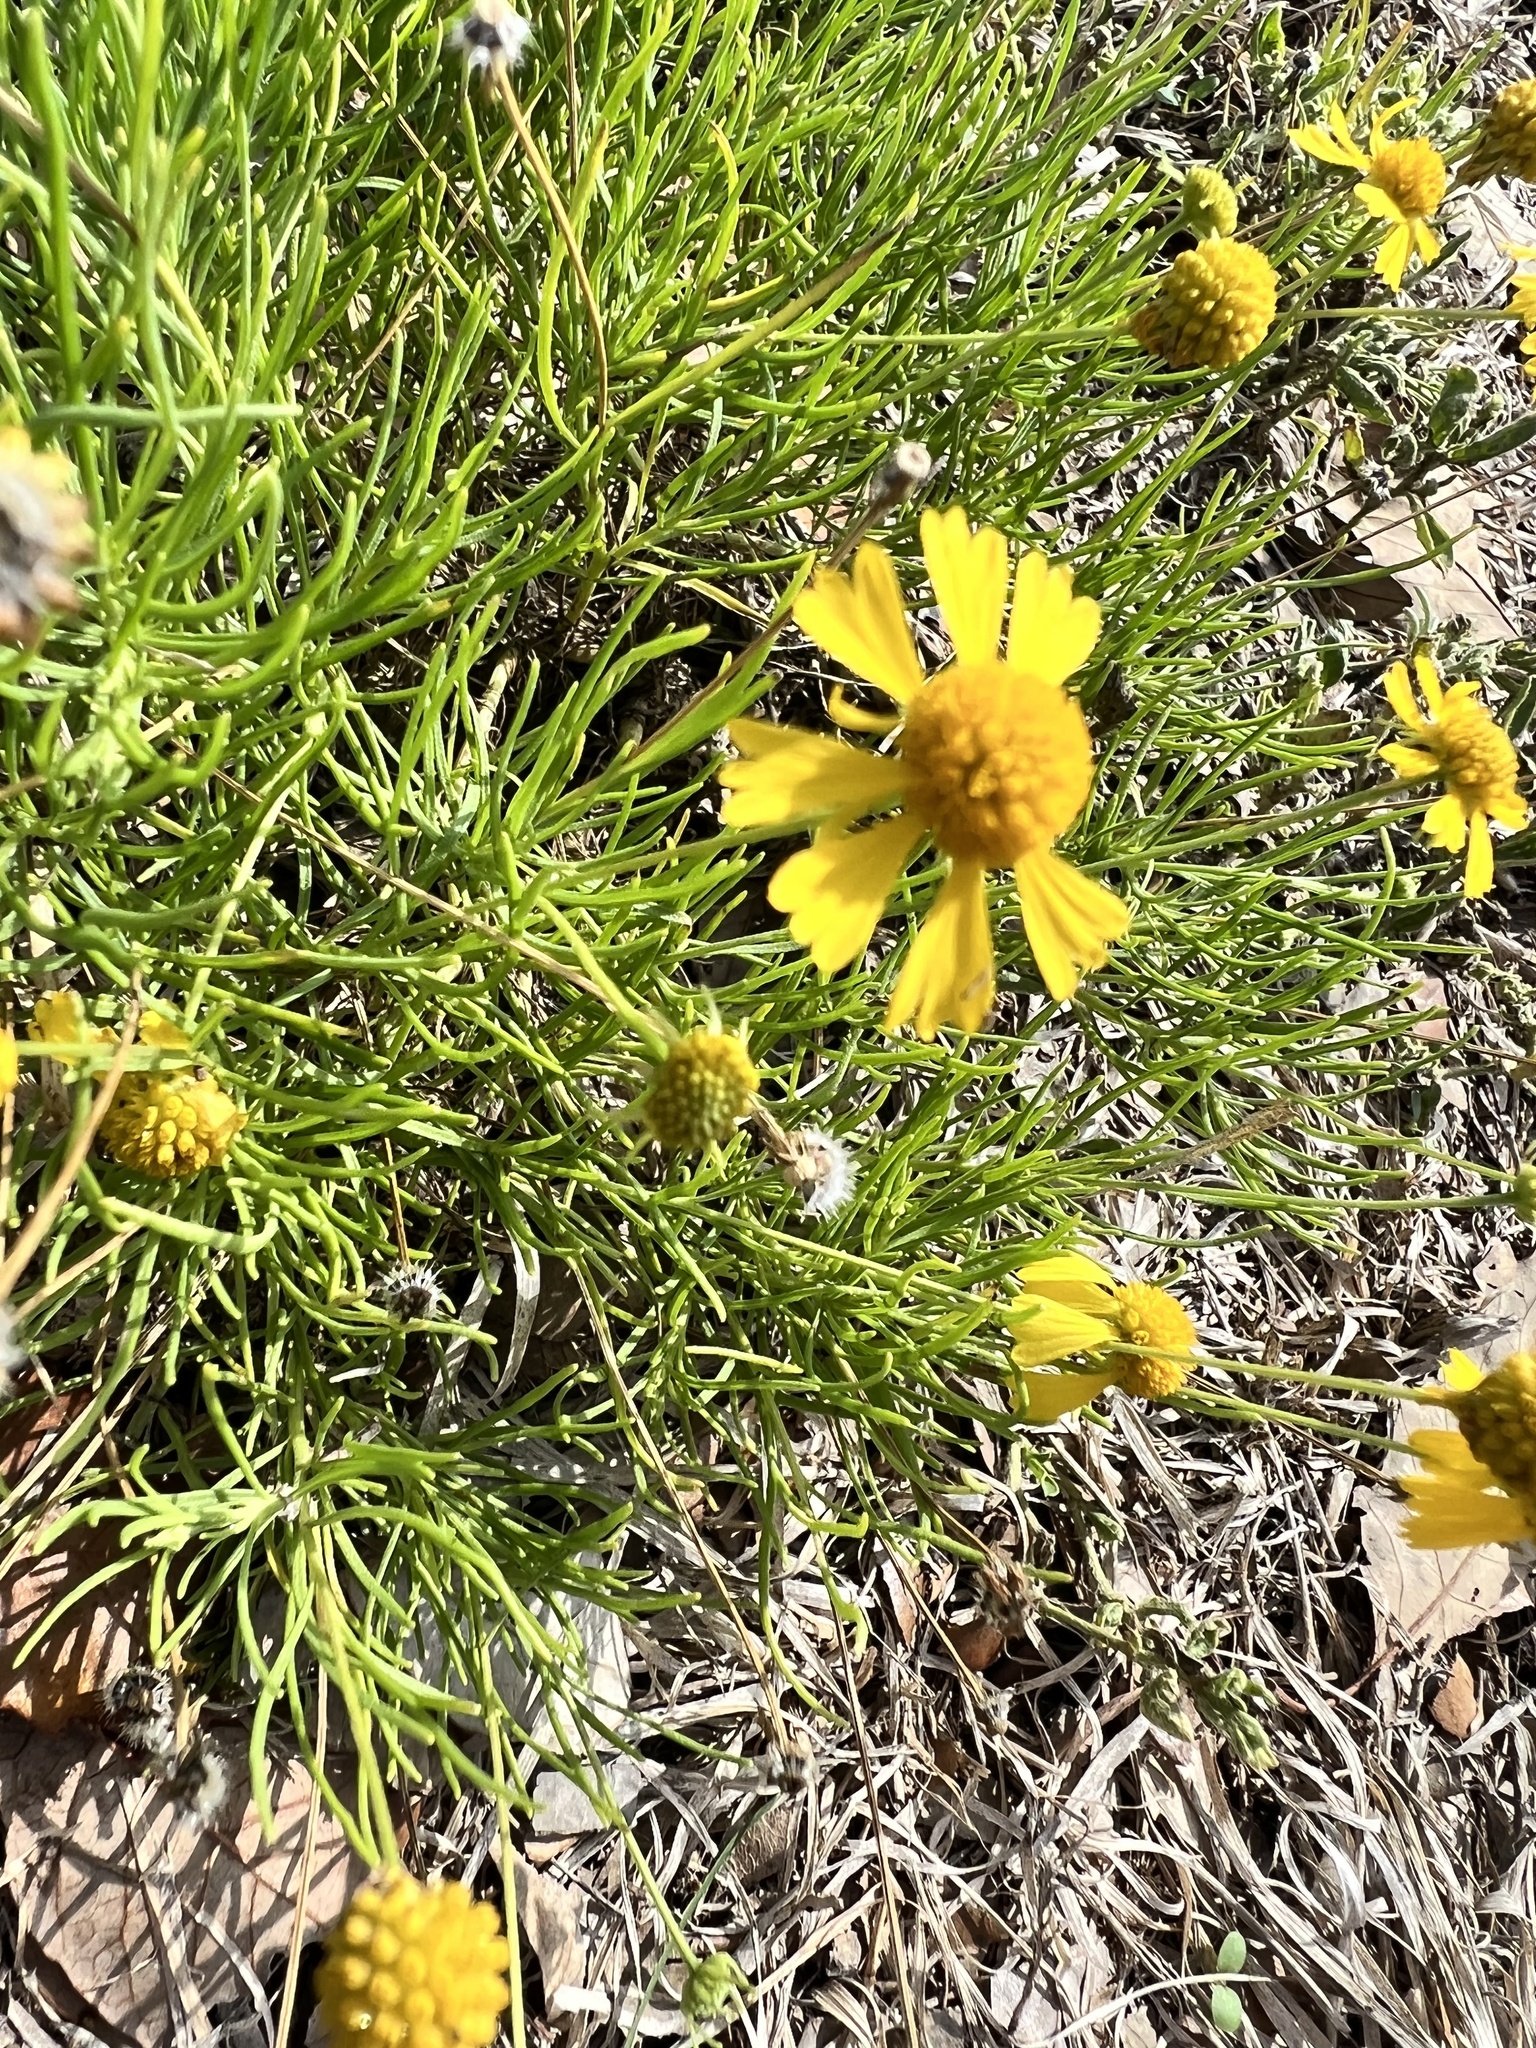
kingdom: Plantae
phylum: Tracheophyta
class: Magnoliopsida
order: Asterales
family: Asteraceae
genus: Helenium
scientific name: Helenium amarum
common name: Bitter sneezeweed
